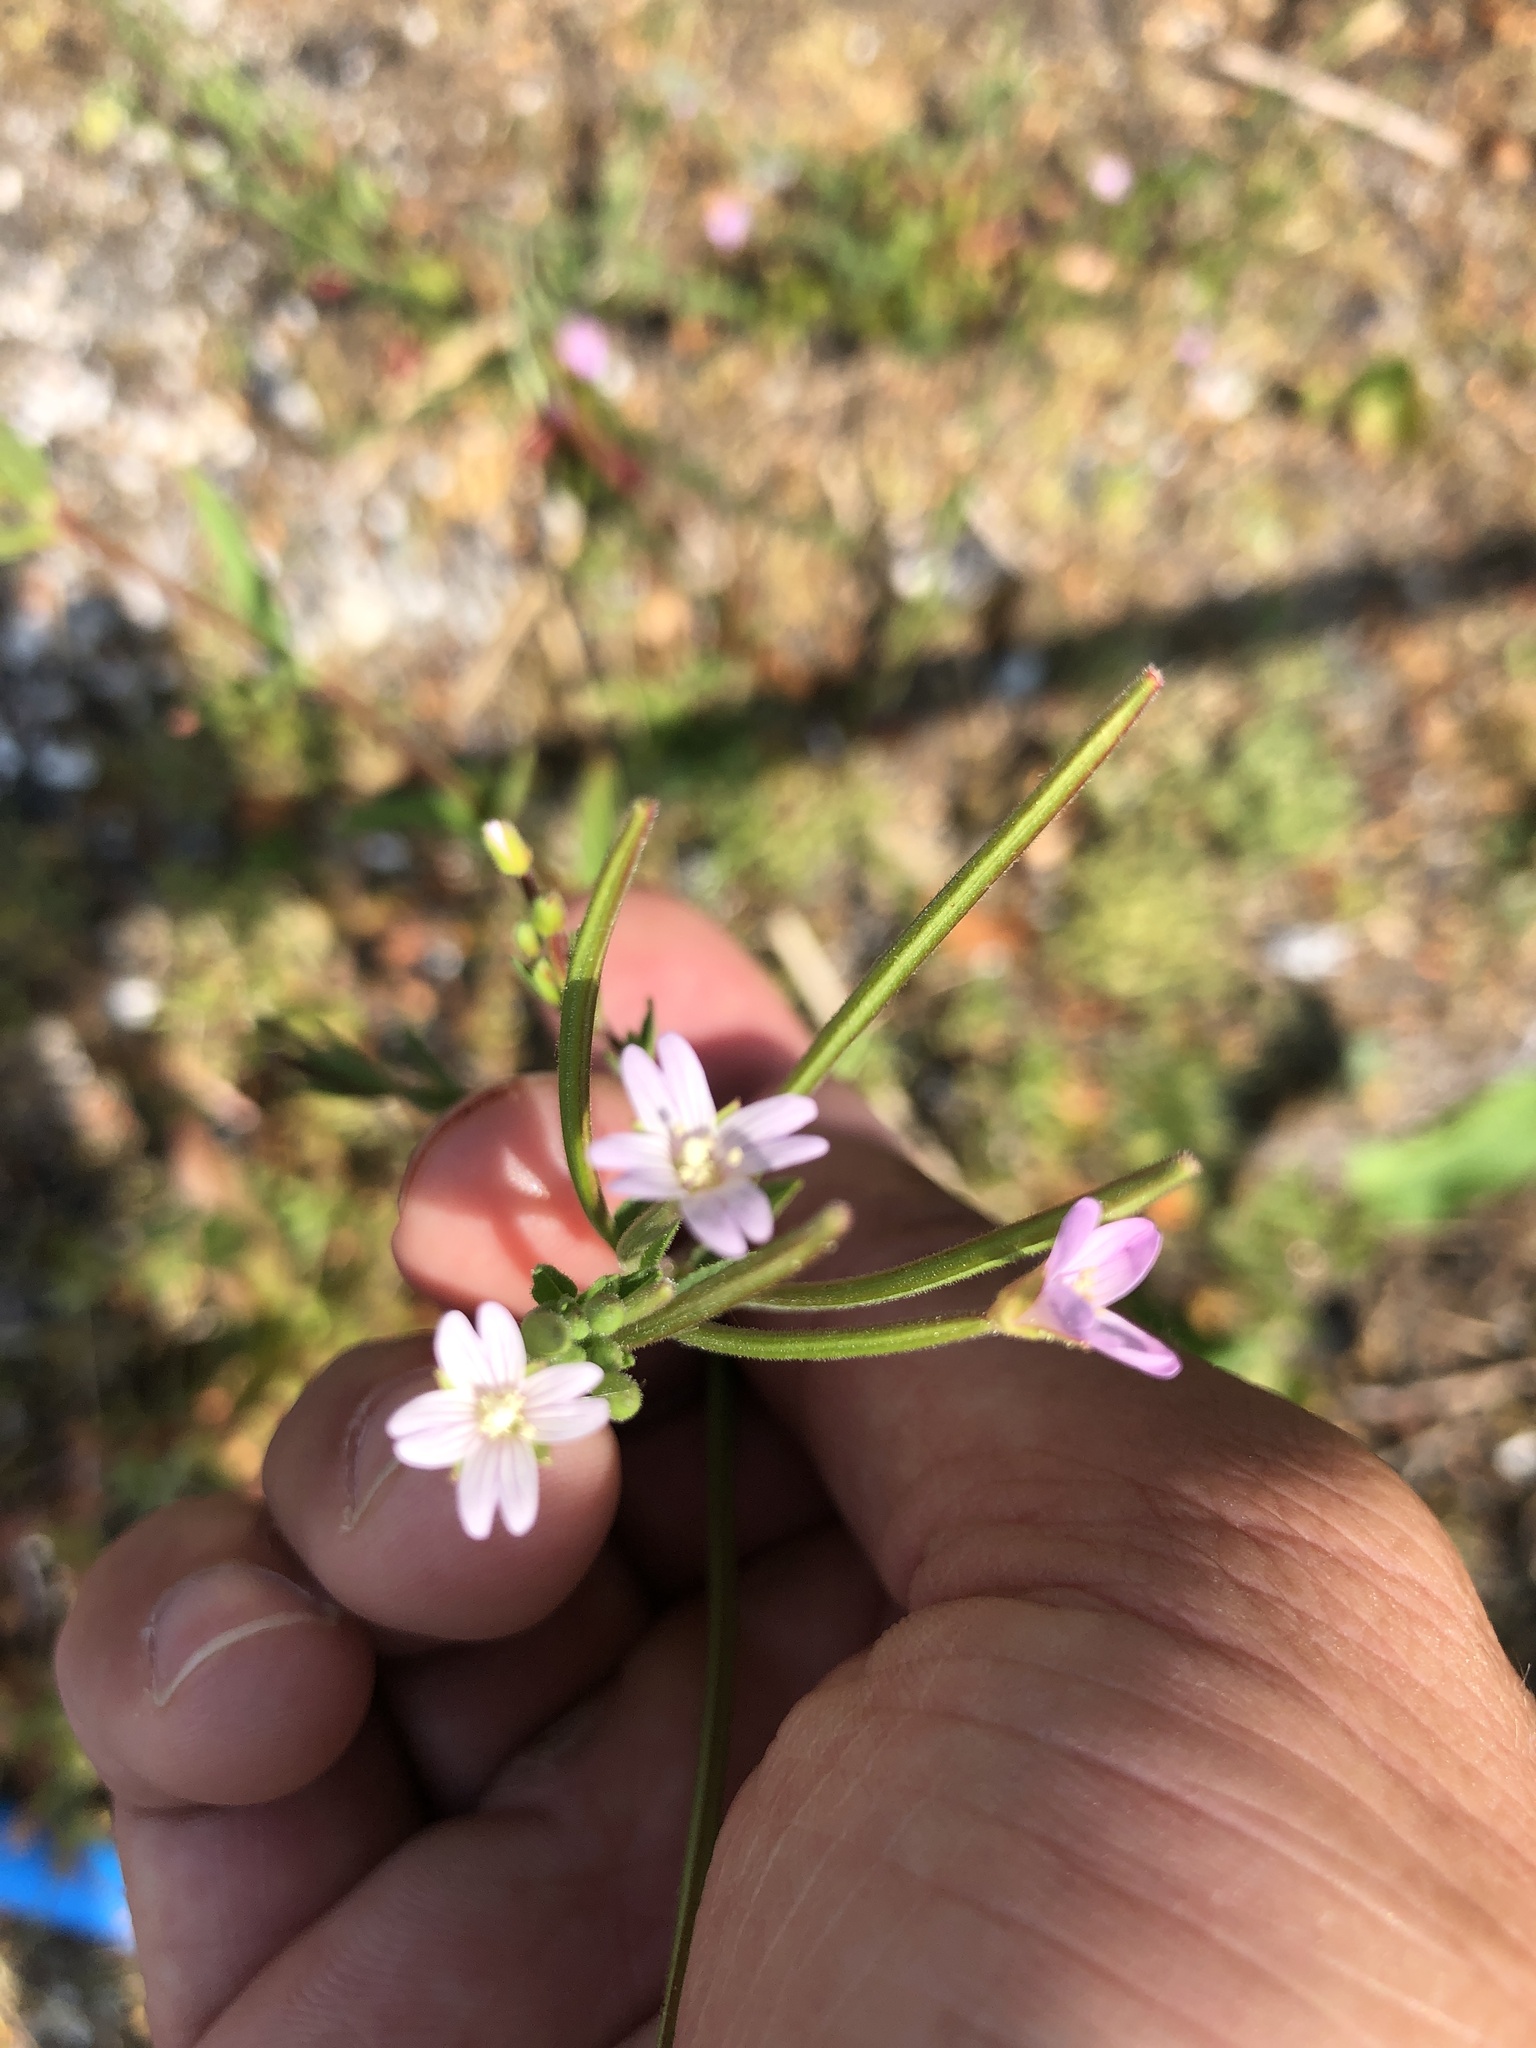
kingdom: Plantae
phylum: Tracheophyta
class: Magnoliopsida
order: Myrtales
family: Onagraceae
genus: Epilobium
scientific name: Epilobium ciliatum
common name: American willowherb
